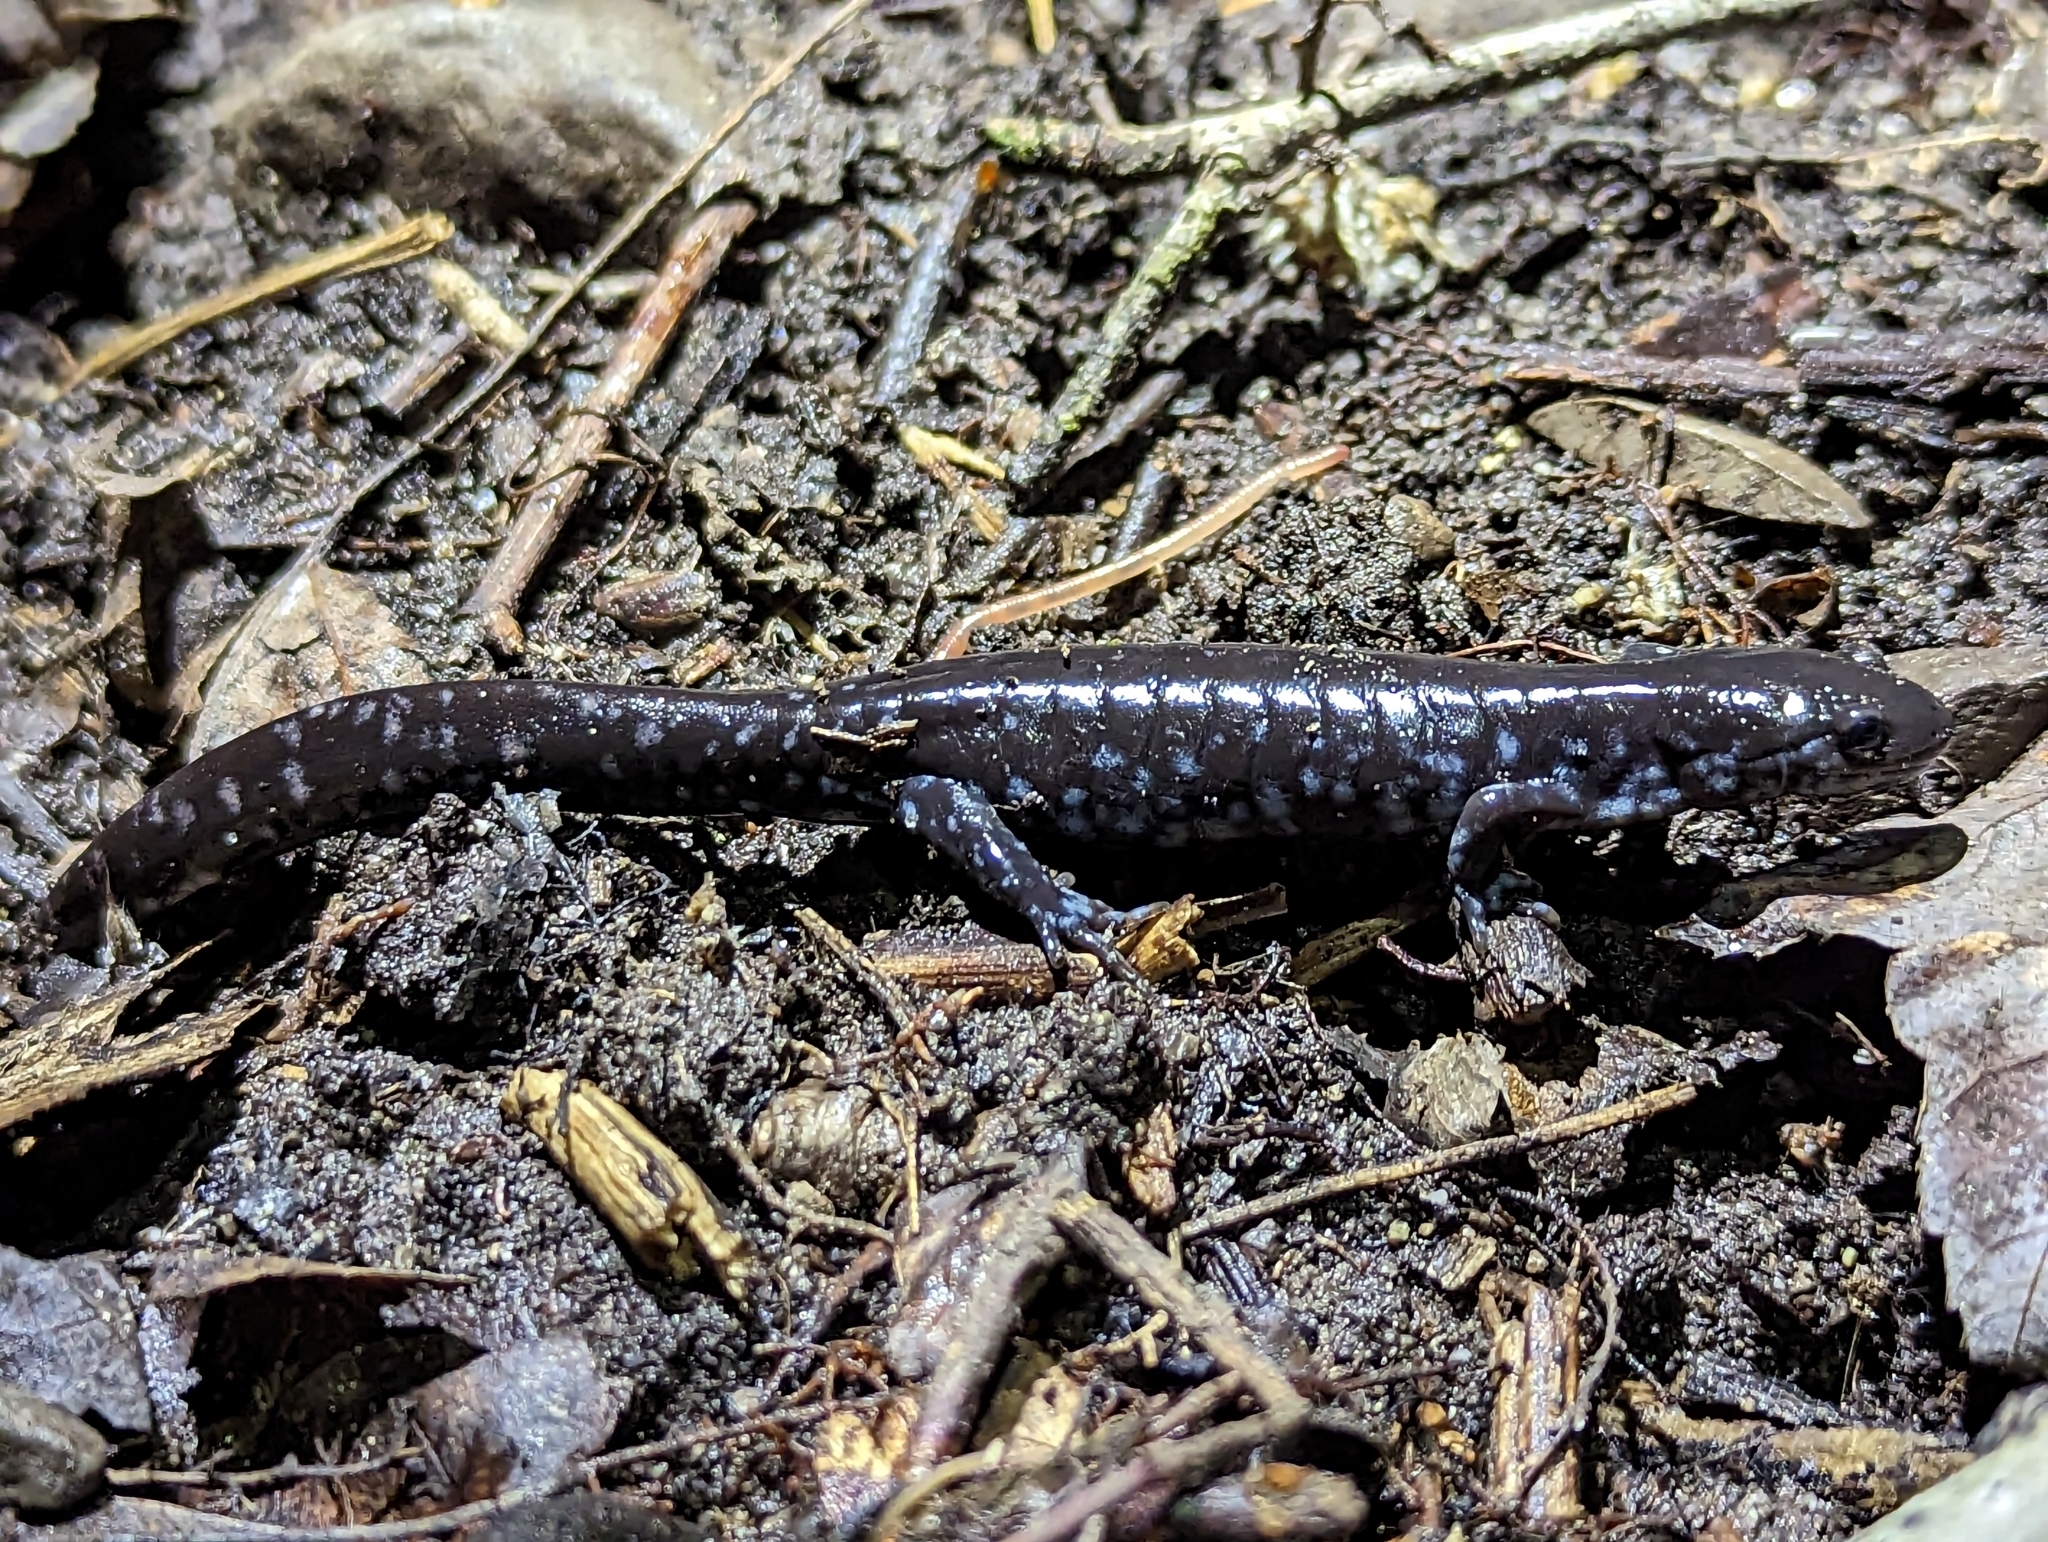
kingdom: Animalia
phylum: Chordata
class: Amphibia
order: Caudata
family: Ambystomatidae
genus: Ambystoma
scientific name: Ambystoma laterale
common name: Blue-spotted salamander
